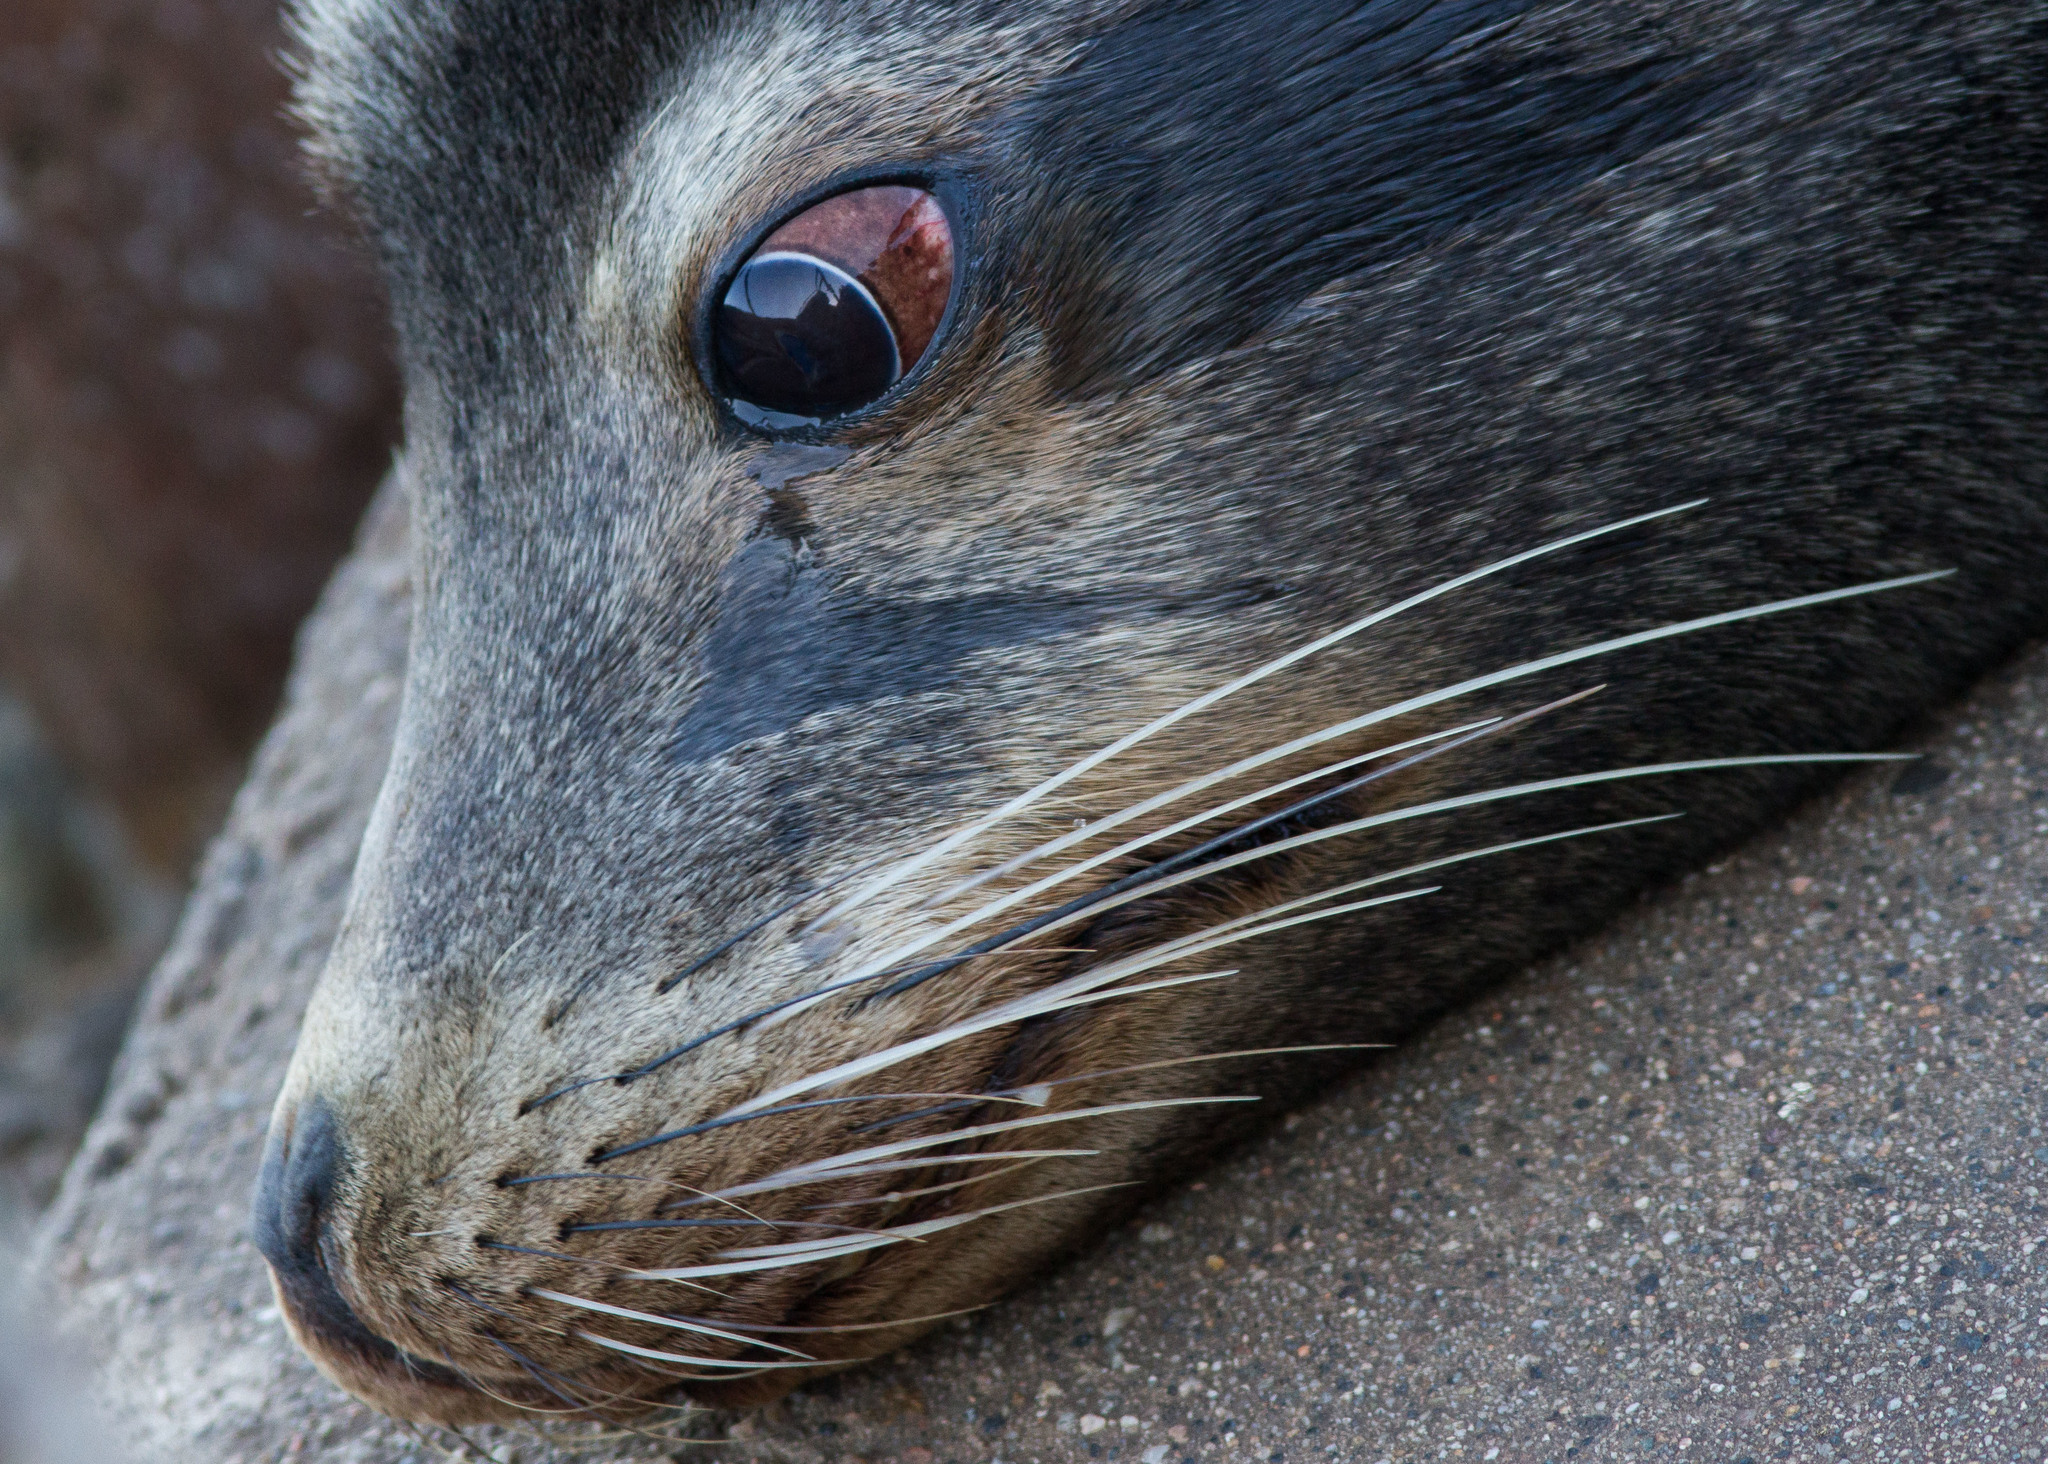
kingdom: Animalia
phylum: Chordata
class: Mammalia
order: Carnivora
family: Otariidae
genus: Zalophus
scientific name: Zalophus californianus
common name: California sea lion
